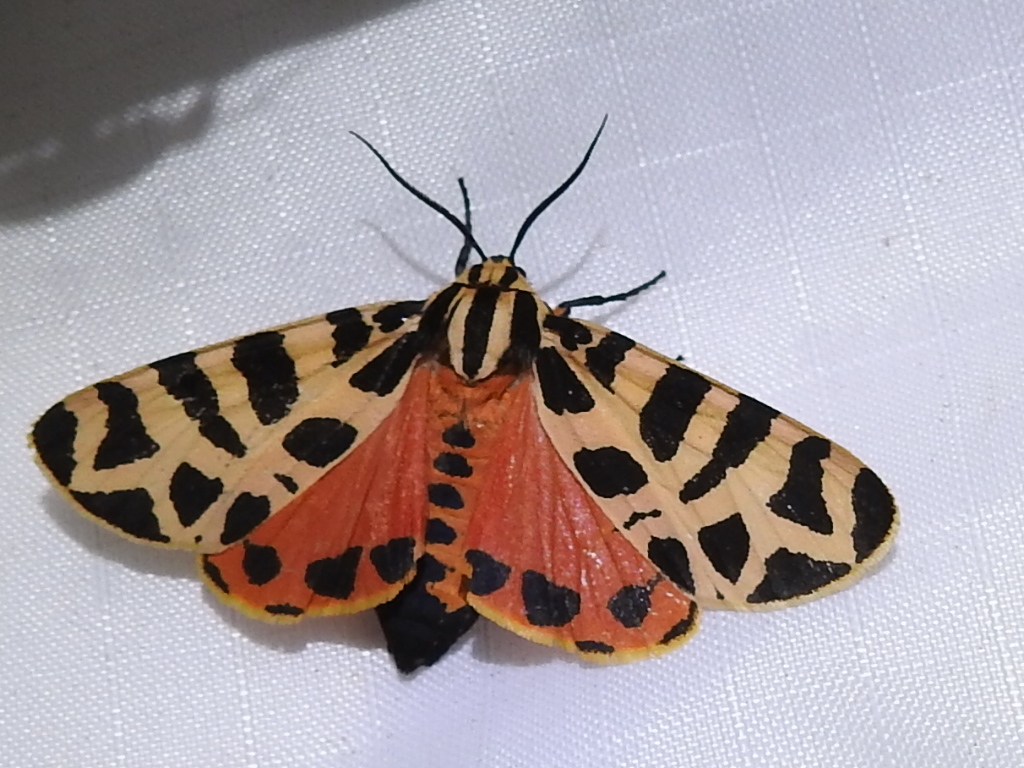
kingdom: Animalia
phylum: Arthropoda
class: Insecta
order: Lepidoptera
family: Erebidae
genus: Apantesis
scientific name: Apantesis incorrupta
